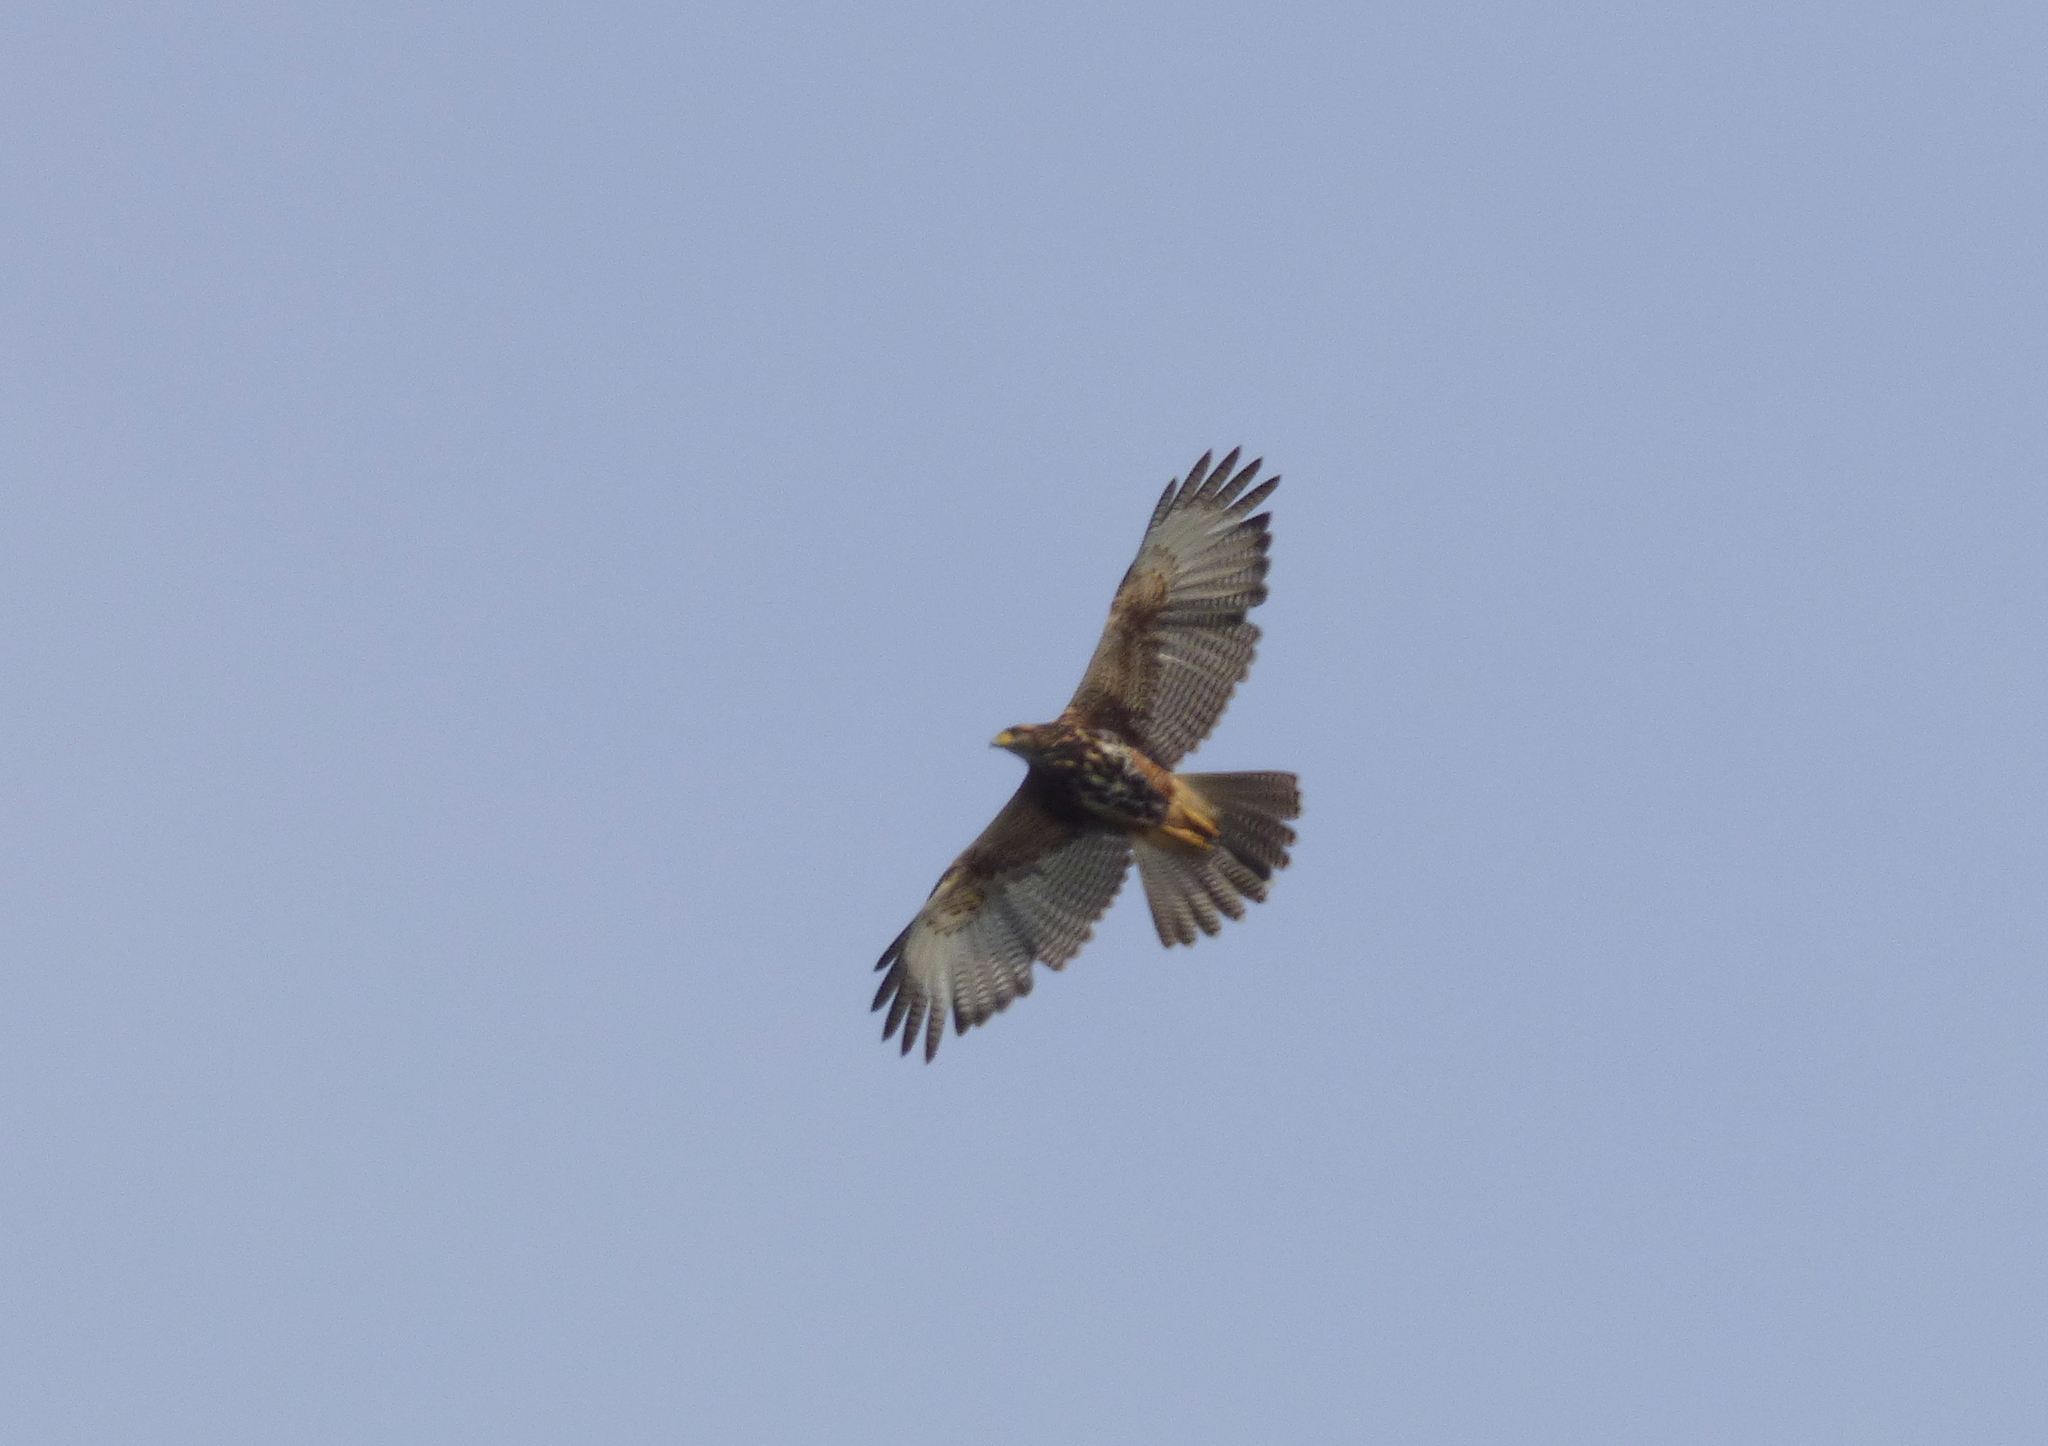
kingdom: Animalia
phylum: Chordata
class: Aves
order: Accipitriformes
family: Accipitridae
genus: Parabuteo
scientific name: Parabuteo unicinctus
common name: Harris's hawk
